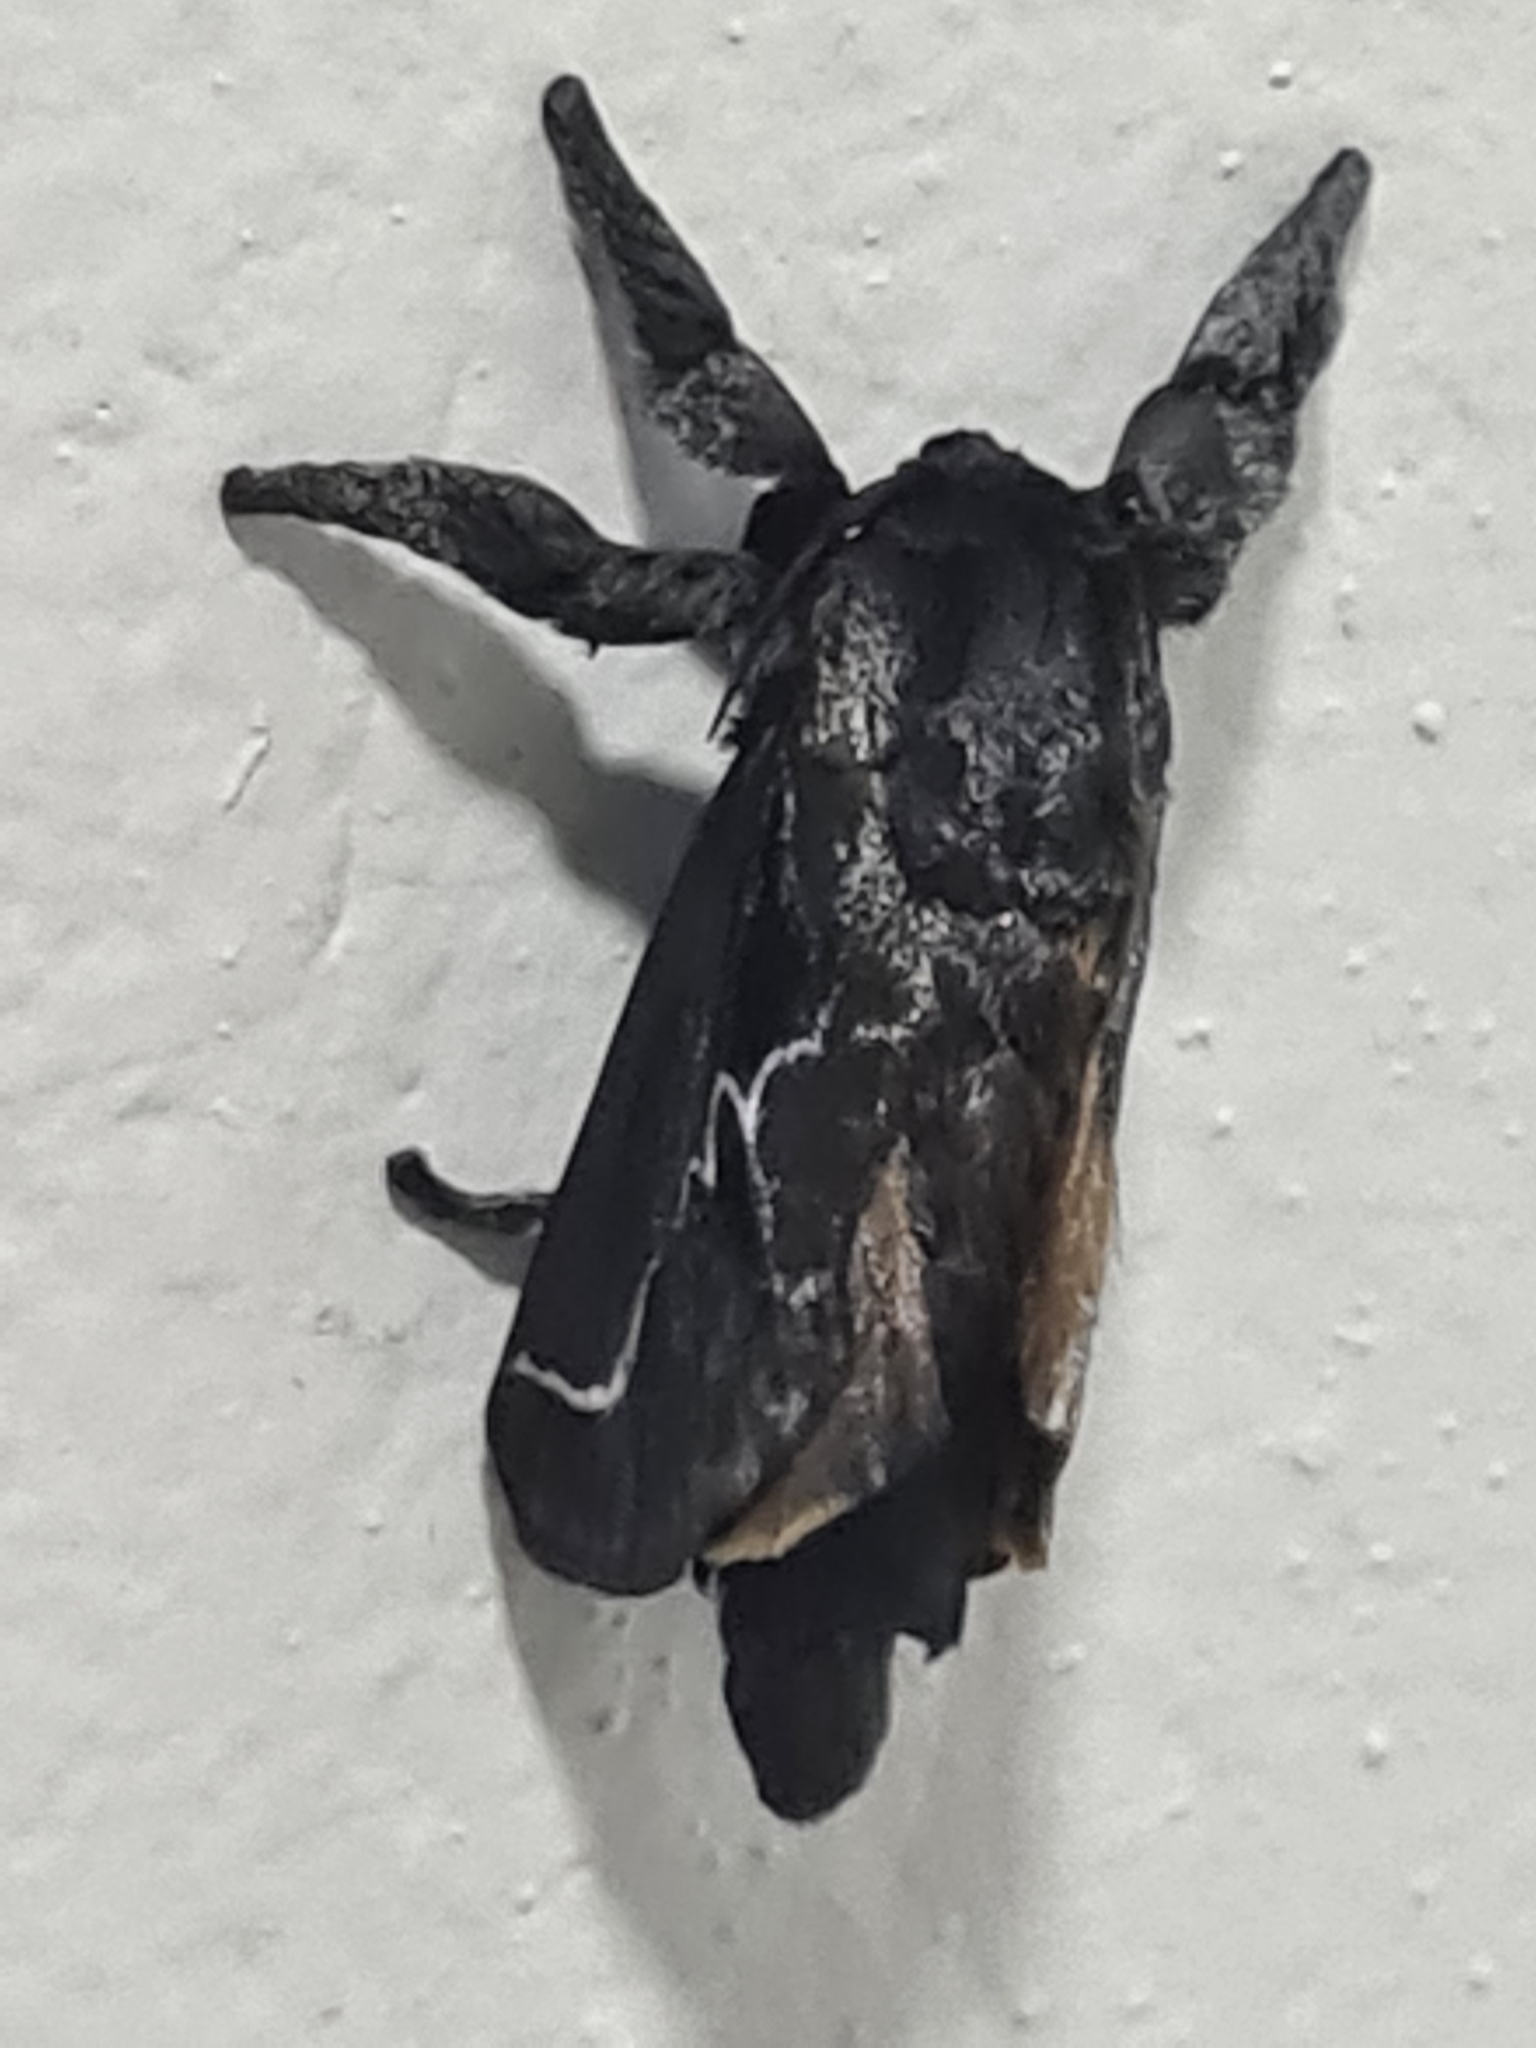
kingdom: Animalia
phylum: Arthropoda
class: Insecta
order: Lepidoptera
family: Limacodidae
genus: Sibine
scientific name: Sibine nesea
